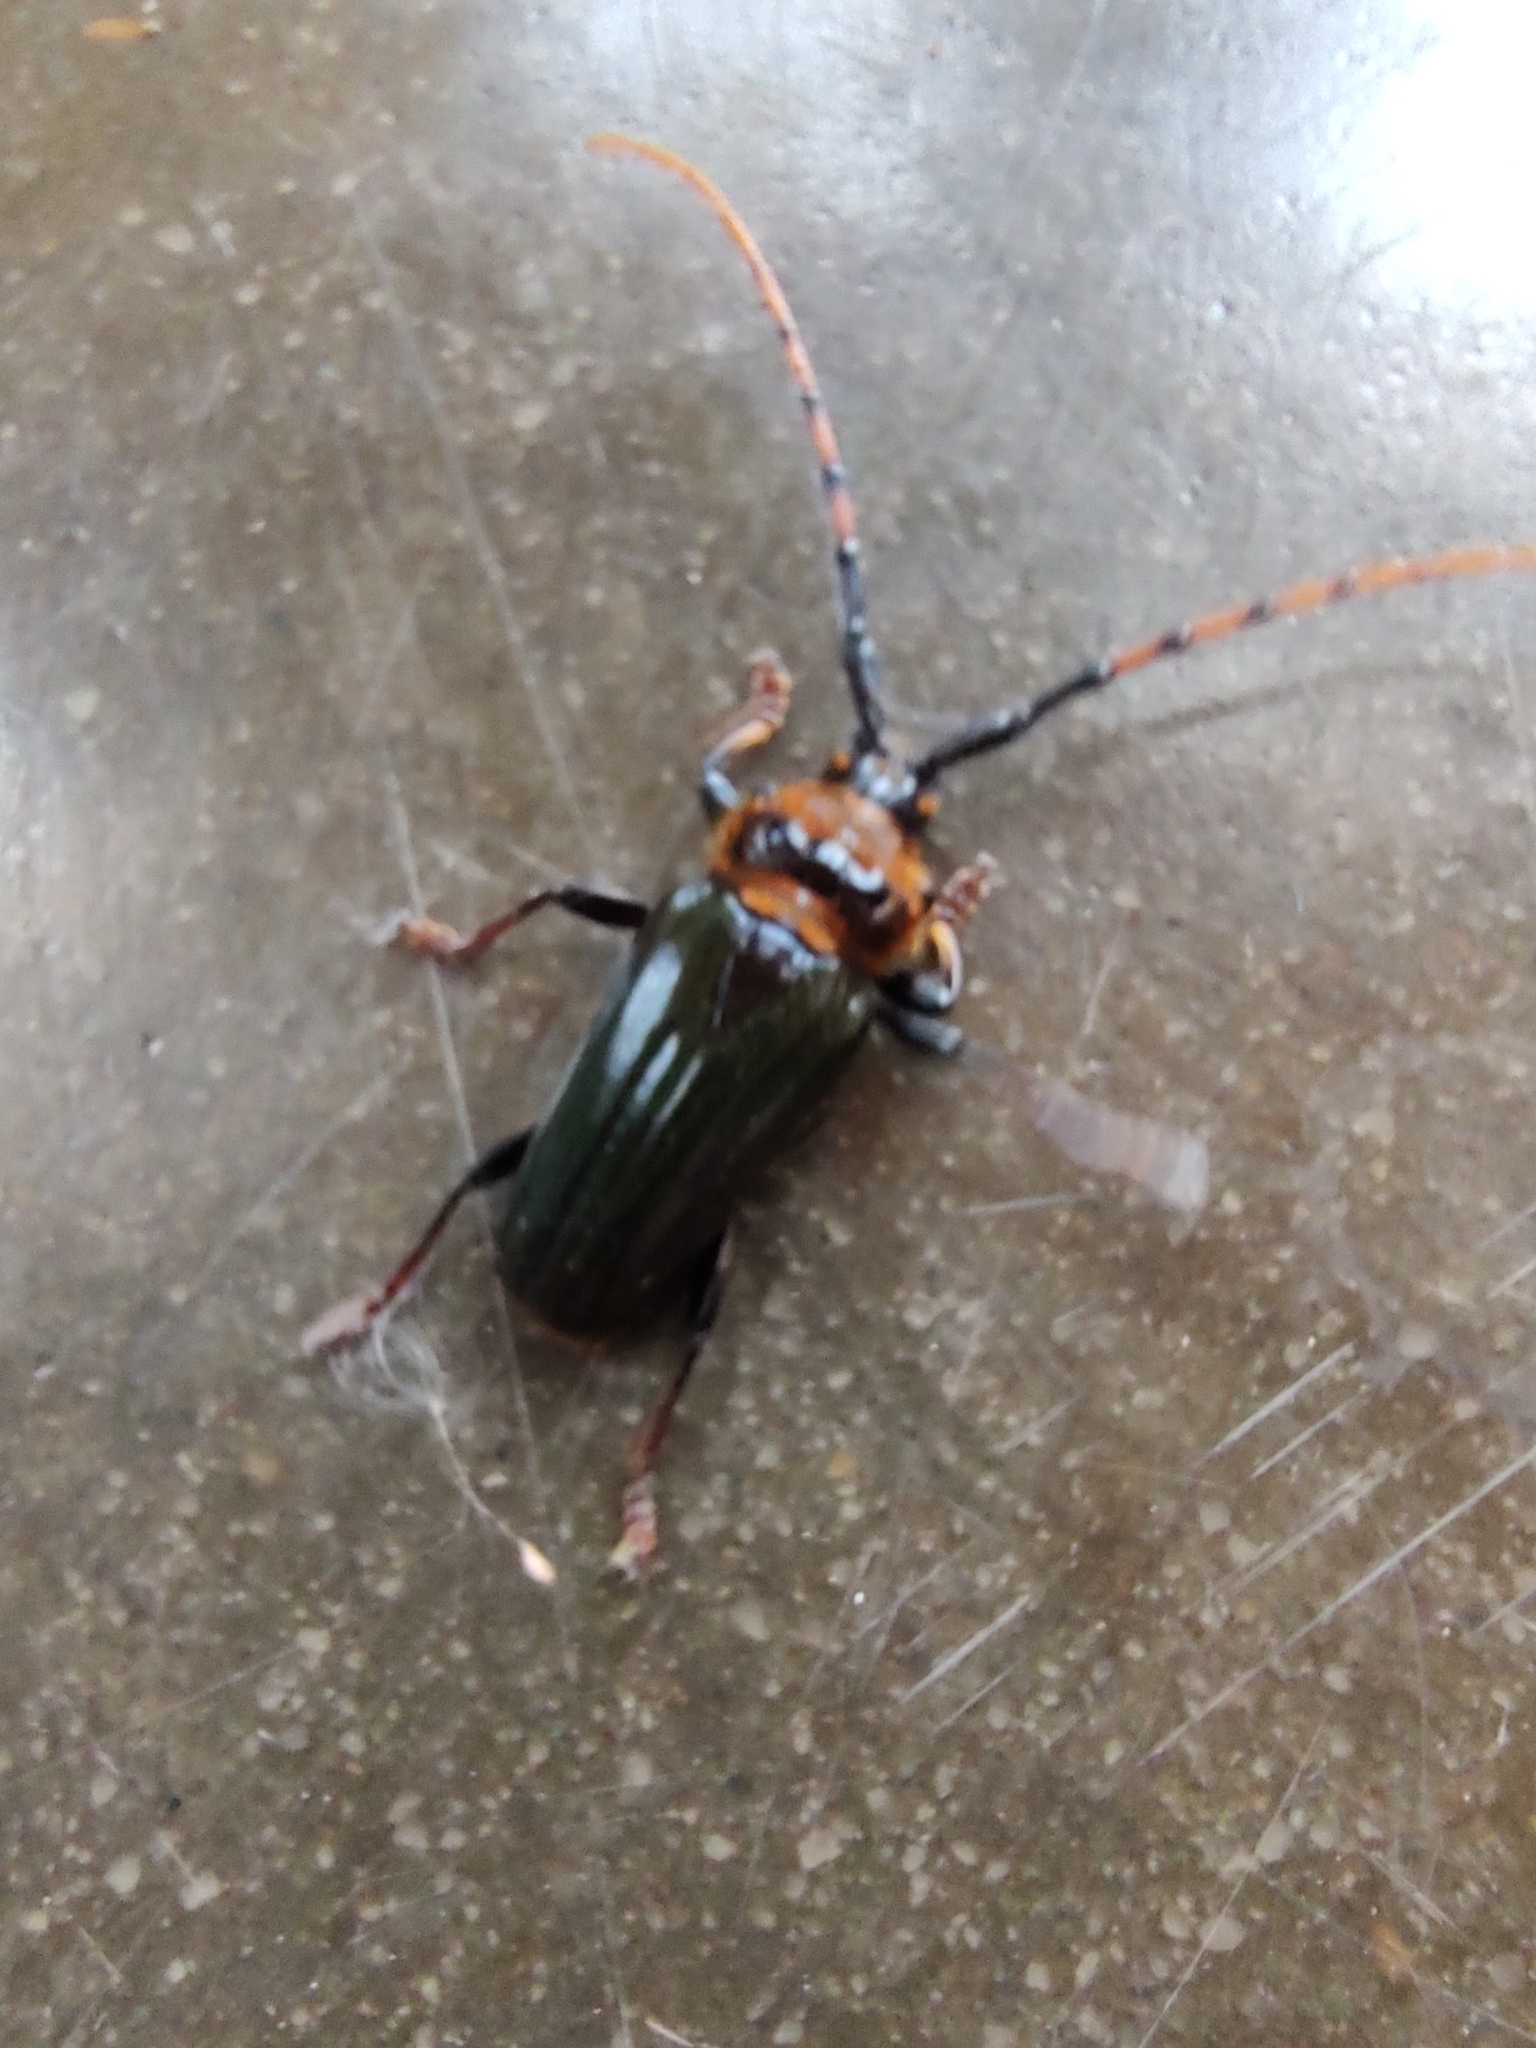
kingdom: Animalia
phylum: Arthropoda
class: Insecta
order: Coleoptera
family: Cerambycidae
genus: Retrachydes
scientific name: Retrachydes thoracicus
